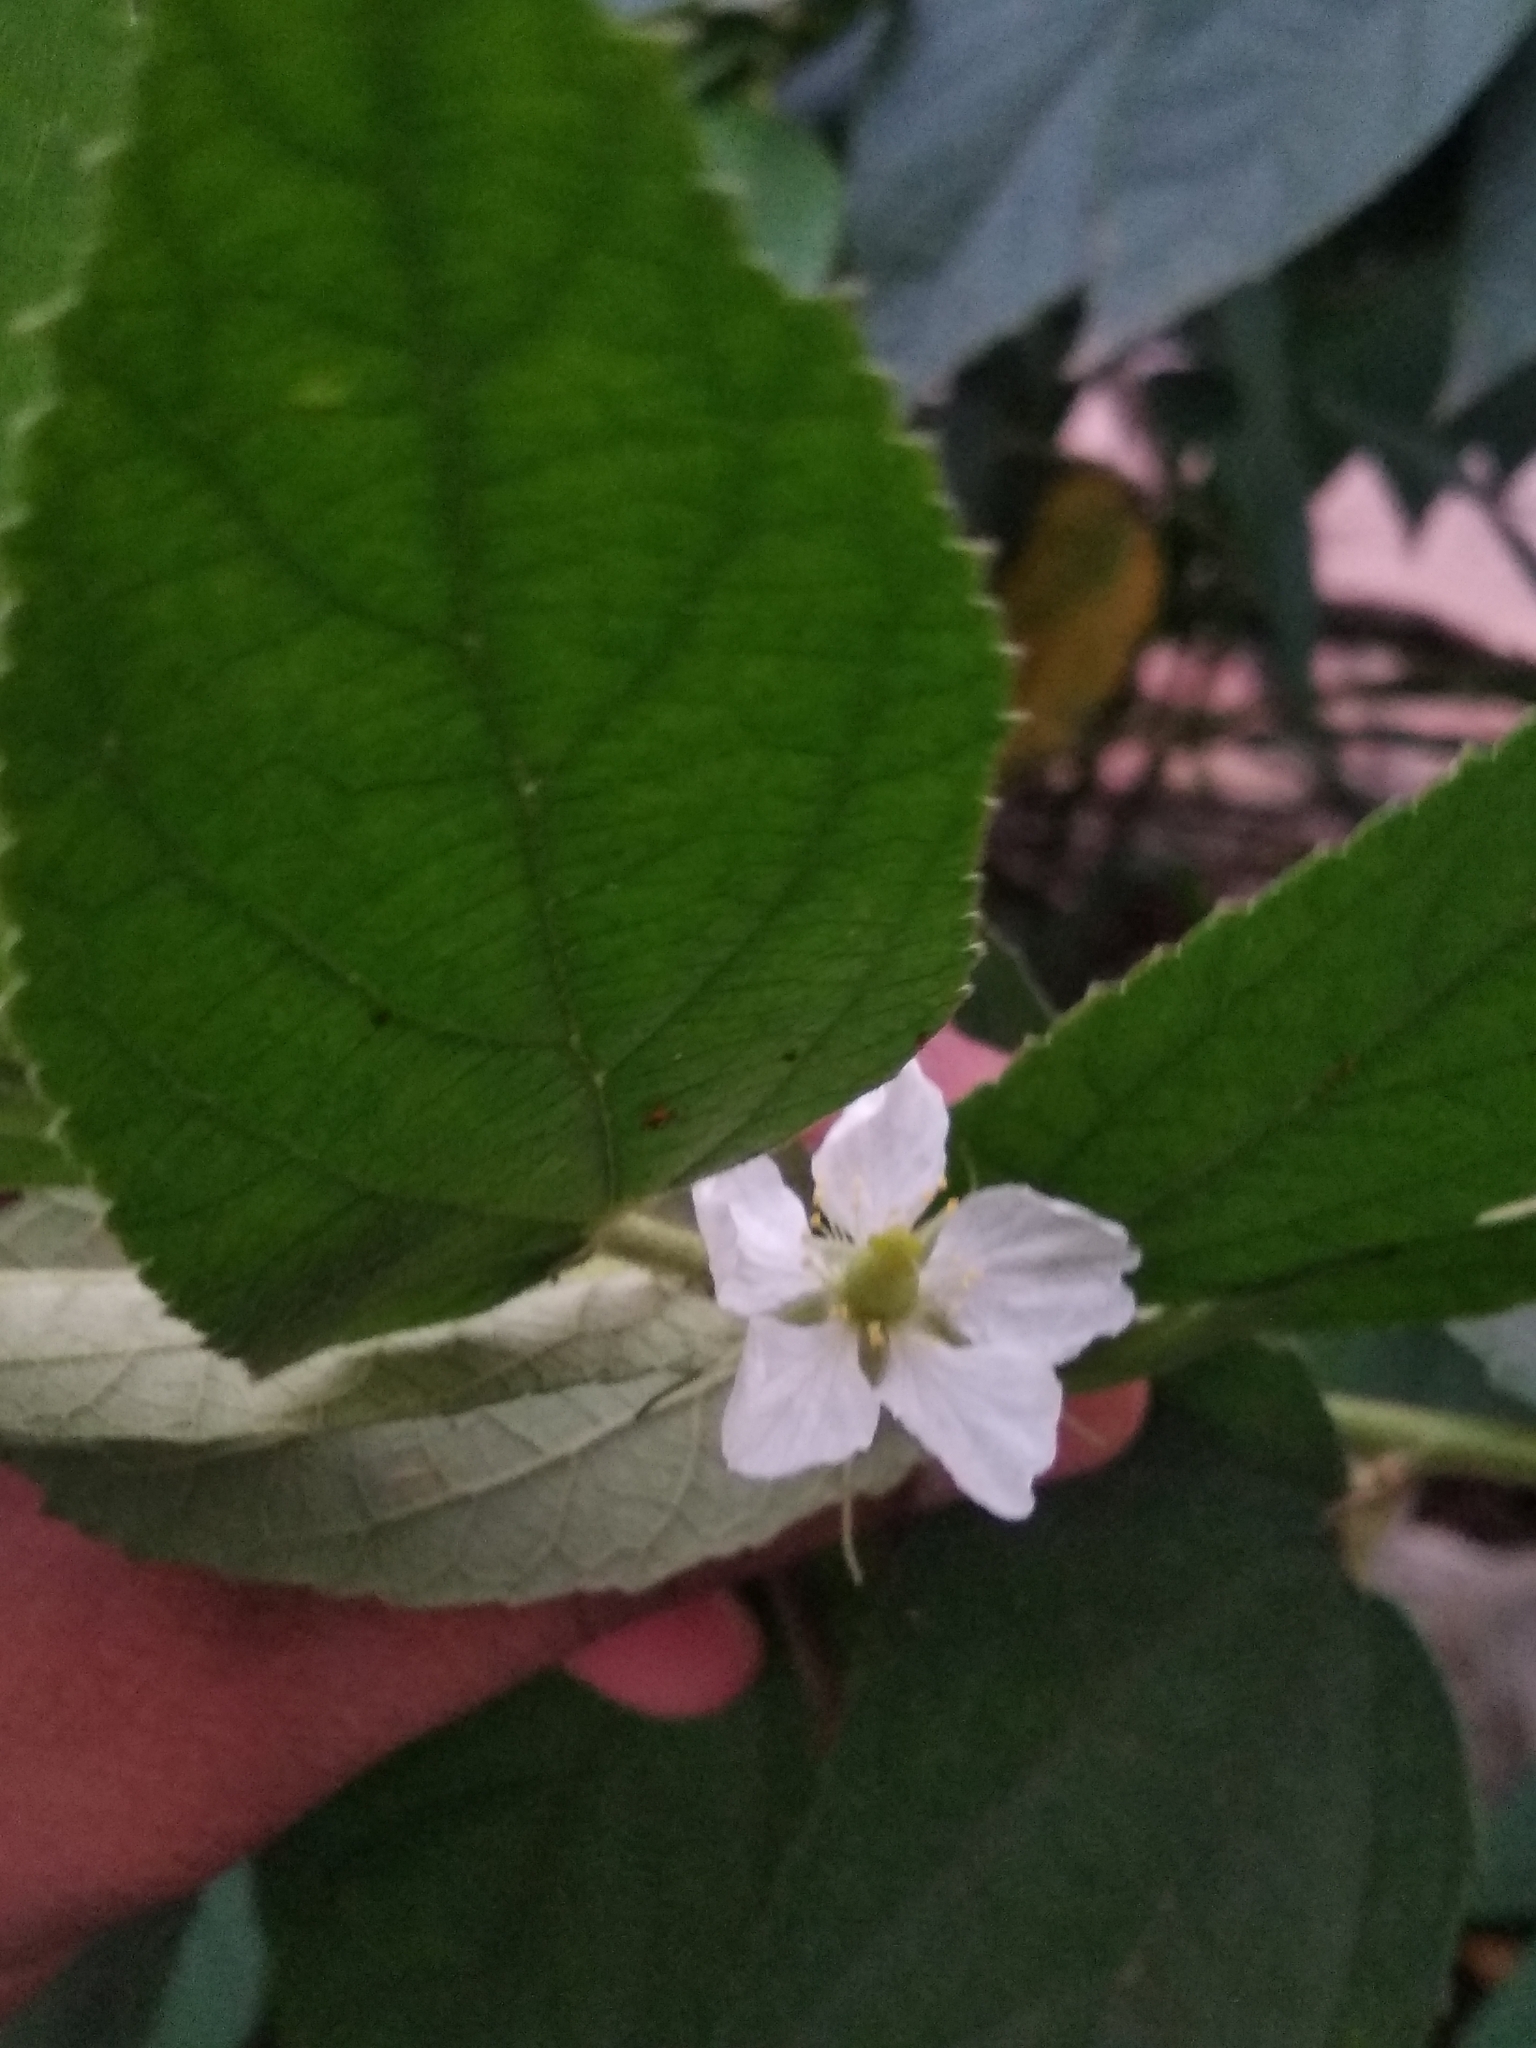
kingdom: Plantae
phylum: Tracheophyta
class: Magnoliopsida
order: Malvales
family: Muntingiaceae
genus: Muntingia
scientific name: Muntingia calabura
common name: Strawberrytree
